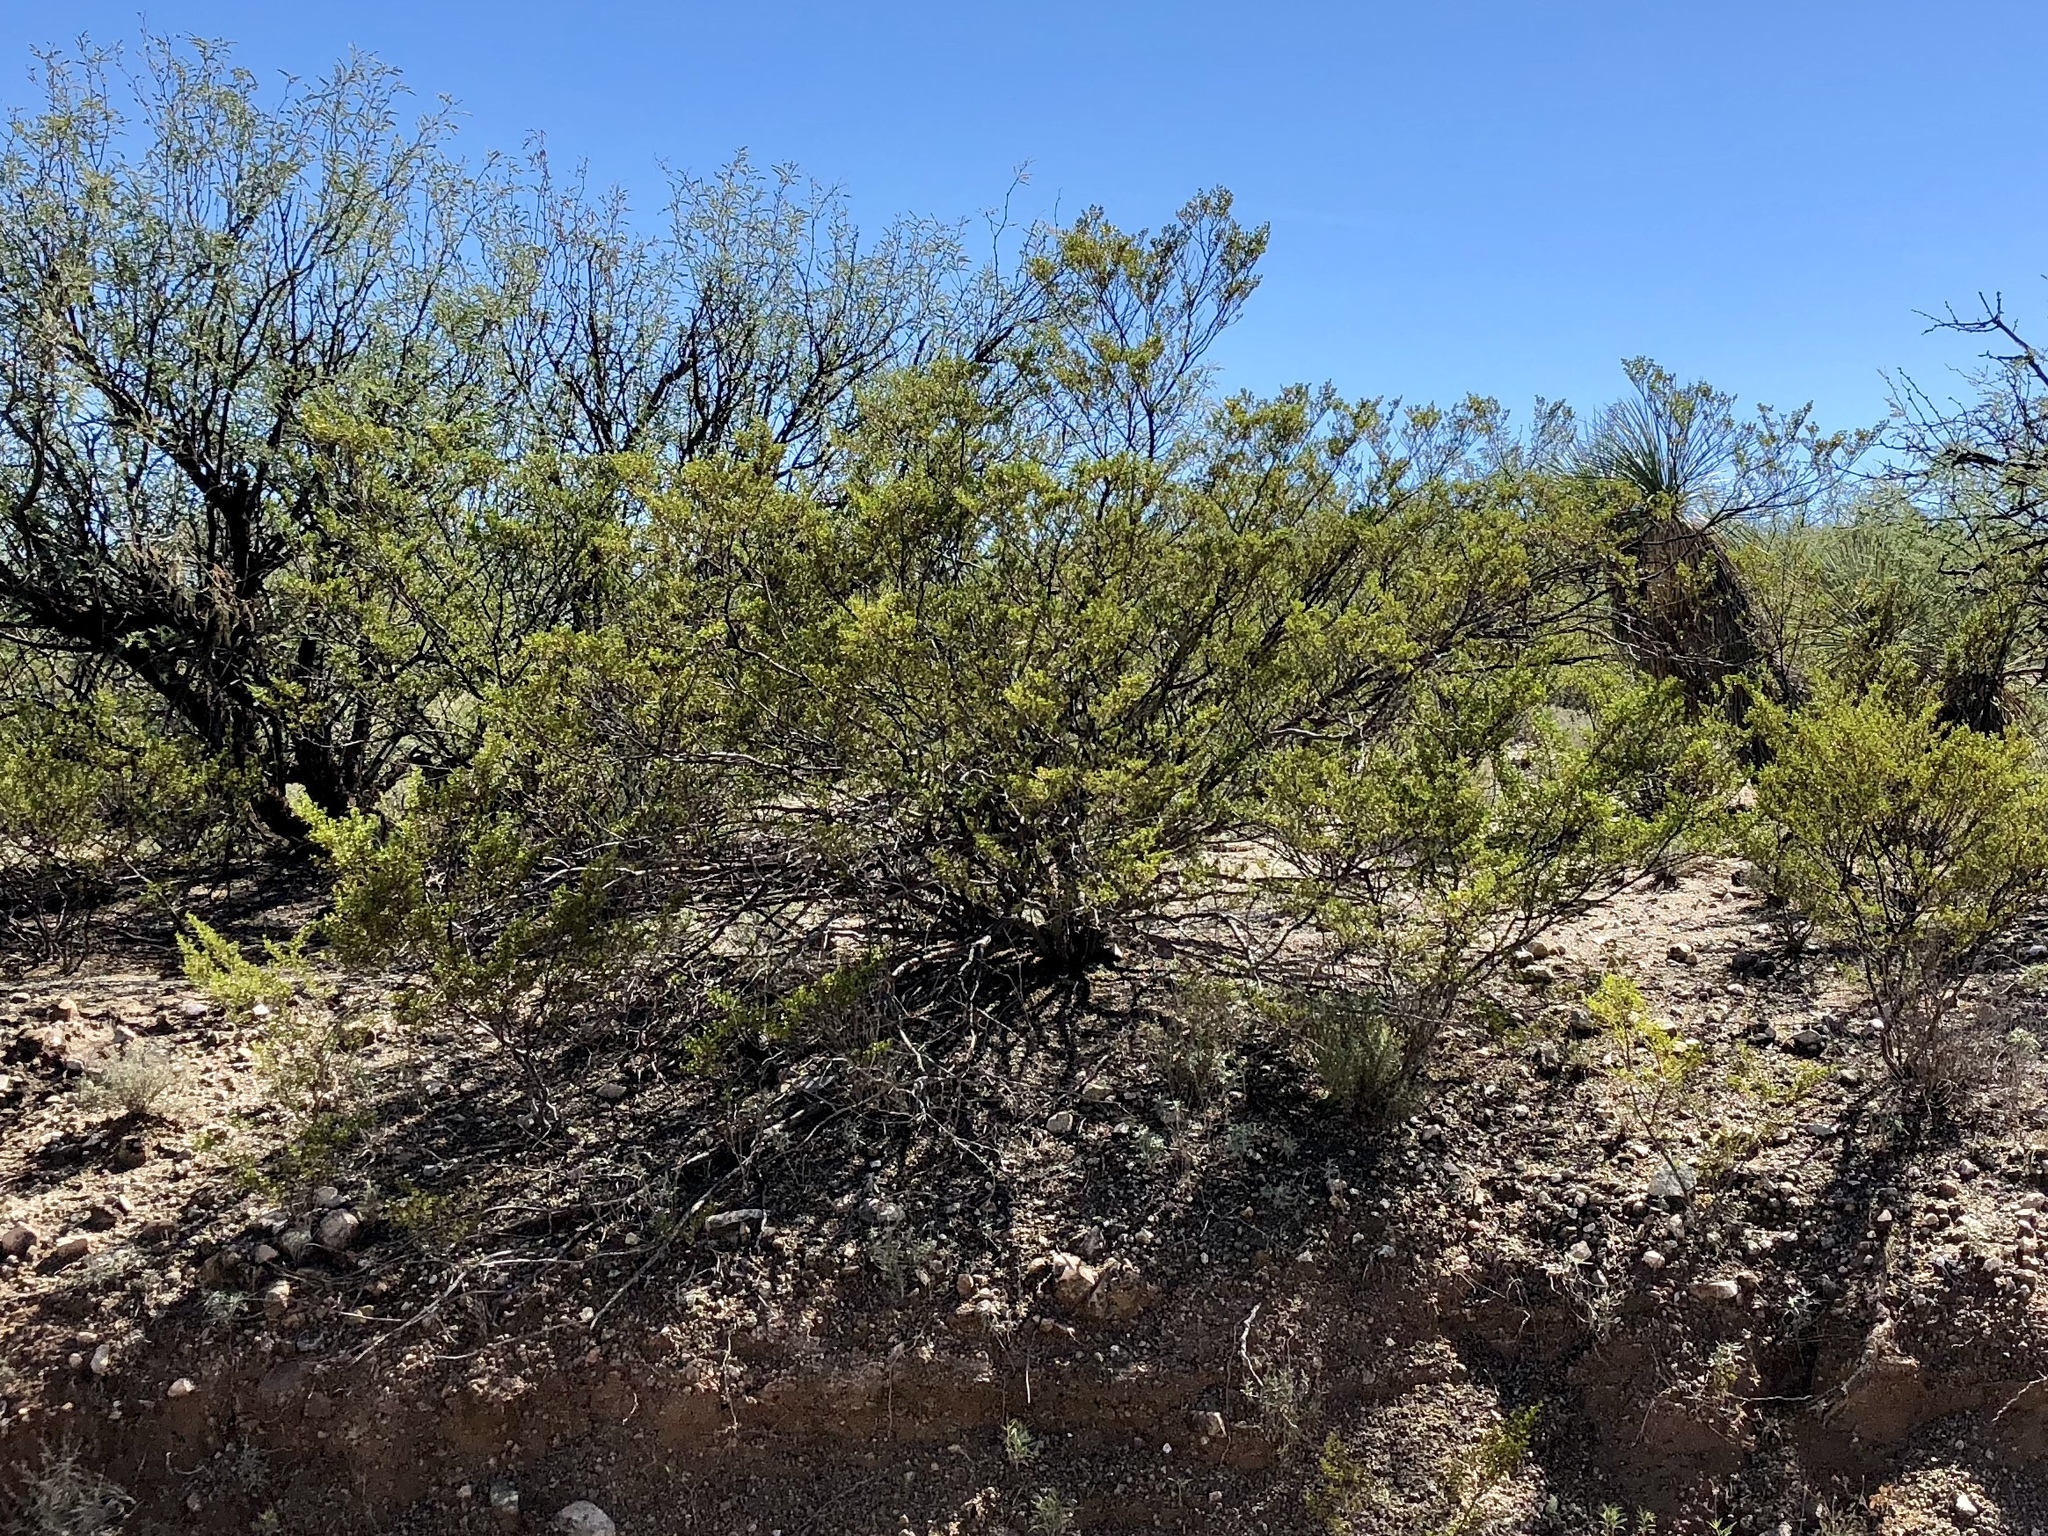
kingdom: Plantae
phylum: Tracheophyta
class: Magnoliopsida
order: Zygophyllales
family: Zygophyllaceae
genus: Larrea
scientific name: Larrea tridentata
